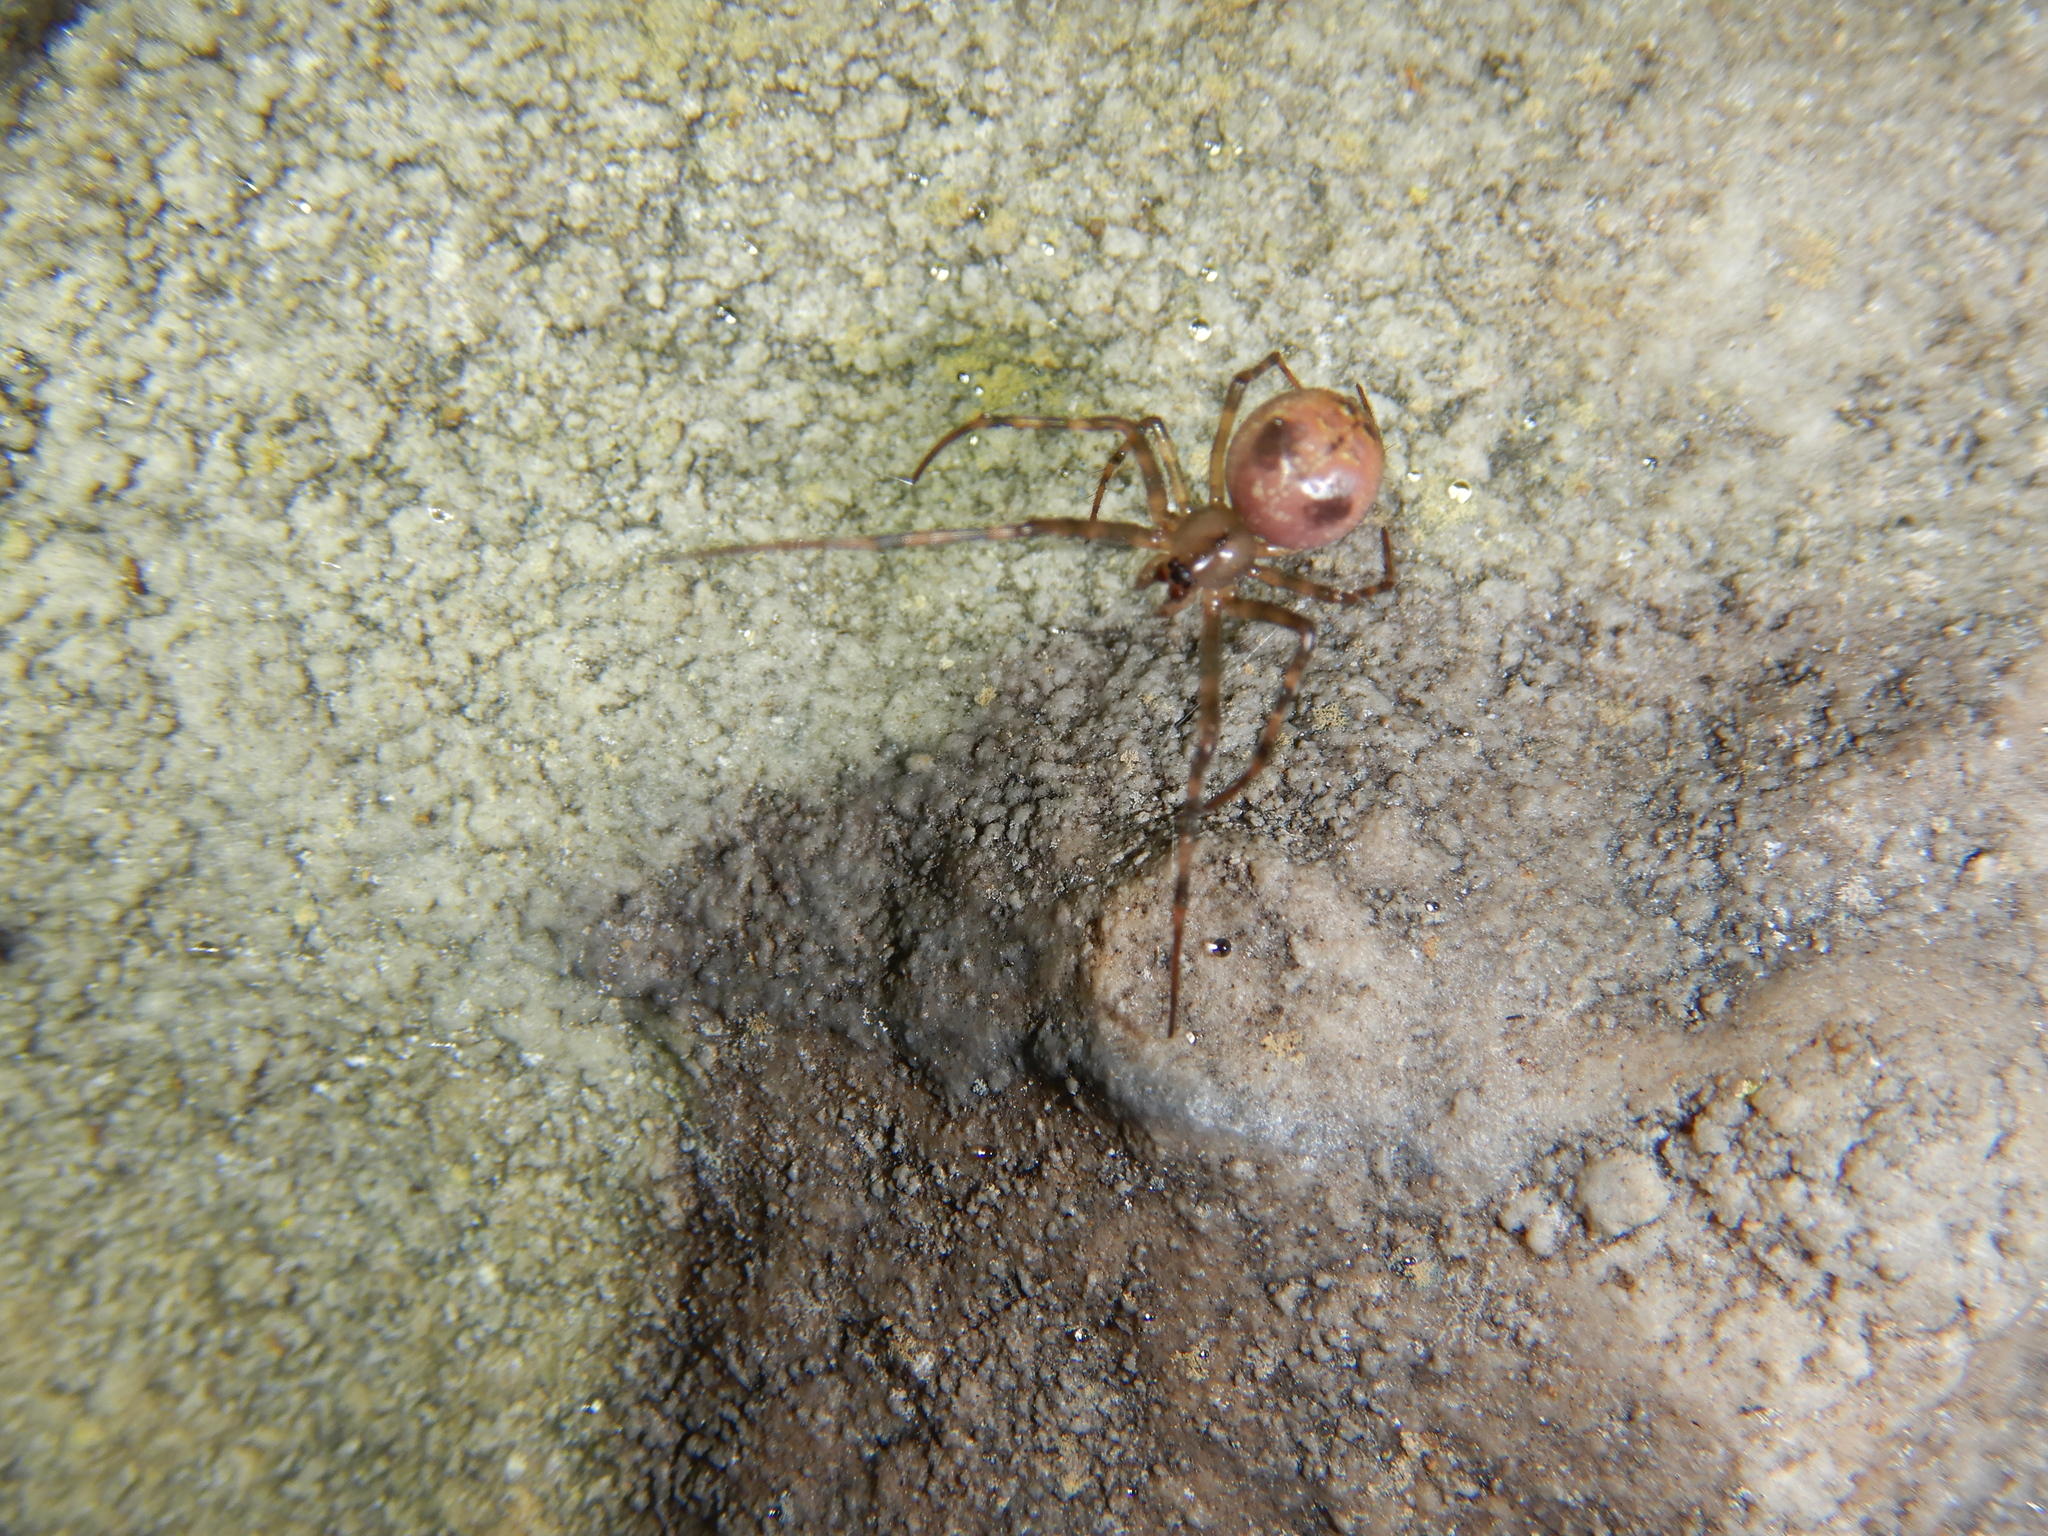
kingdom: Animalia
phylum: Arthropoda
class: Arachnida
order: Araneae
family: Tetragnathidae
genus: Meta
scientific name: Meta menardi
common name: Cave spider
